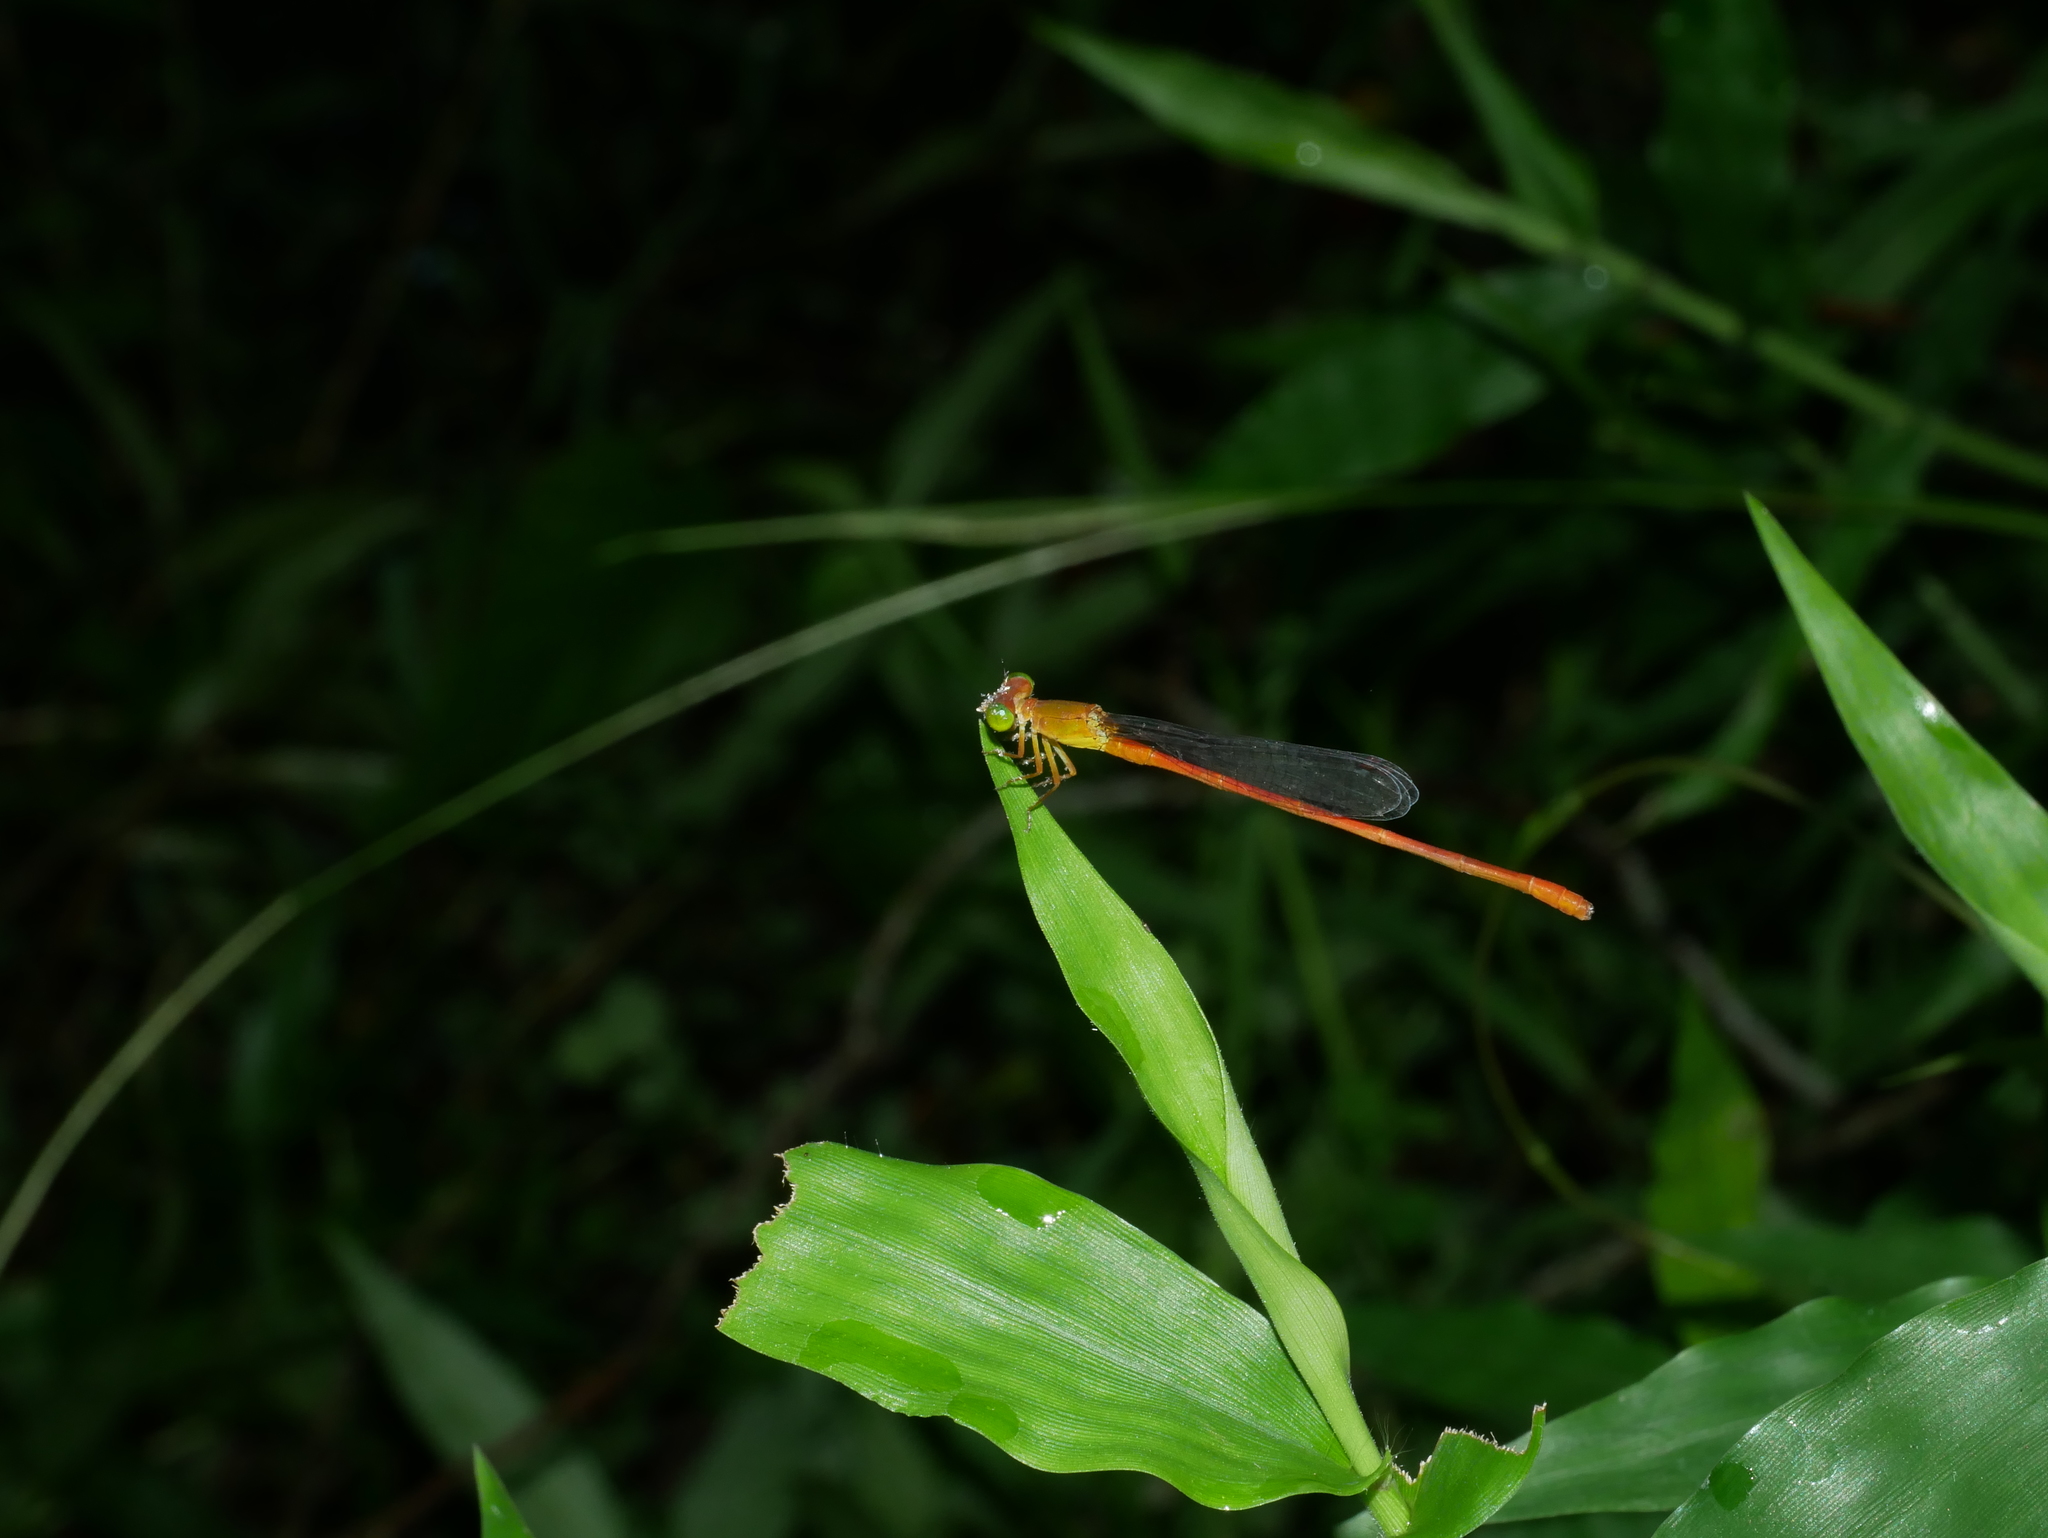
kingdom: Animalia
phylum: Arthropoda
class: Insecta
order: Odonata
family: Coenagrionidae
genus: Ceriagrion
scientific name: Ceriagrion auranticum
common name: Orange-tailed sprite
